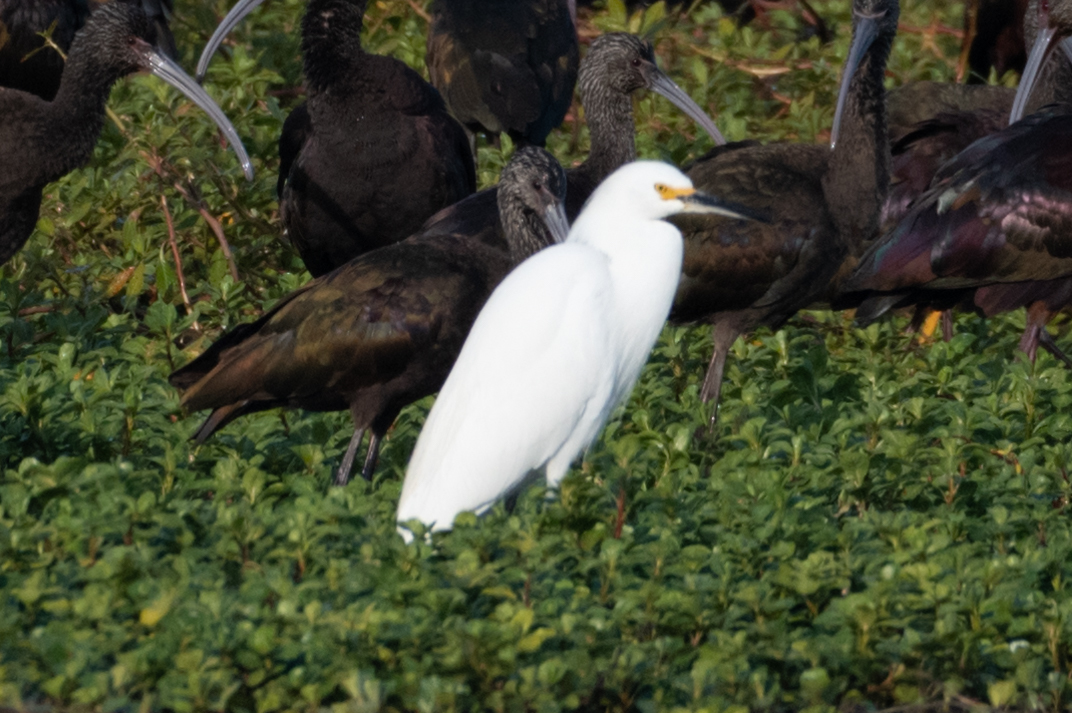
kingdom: Animalia
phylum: Chordata
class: Aves
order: Pelecaniformes
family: Ardeidae
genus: Egretta
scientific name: Egretta thula
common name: Snowy egret
